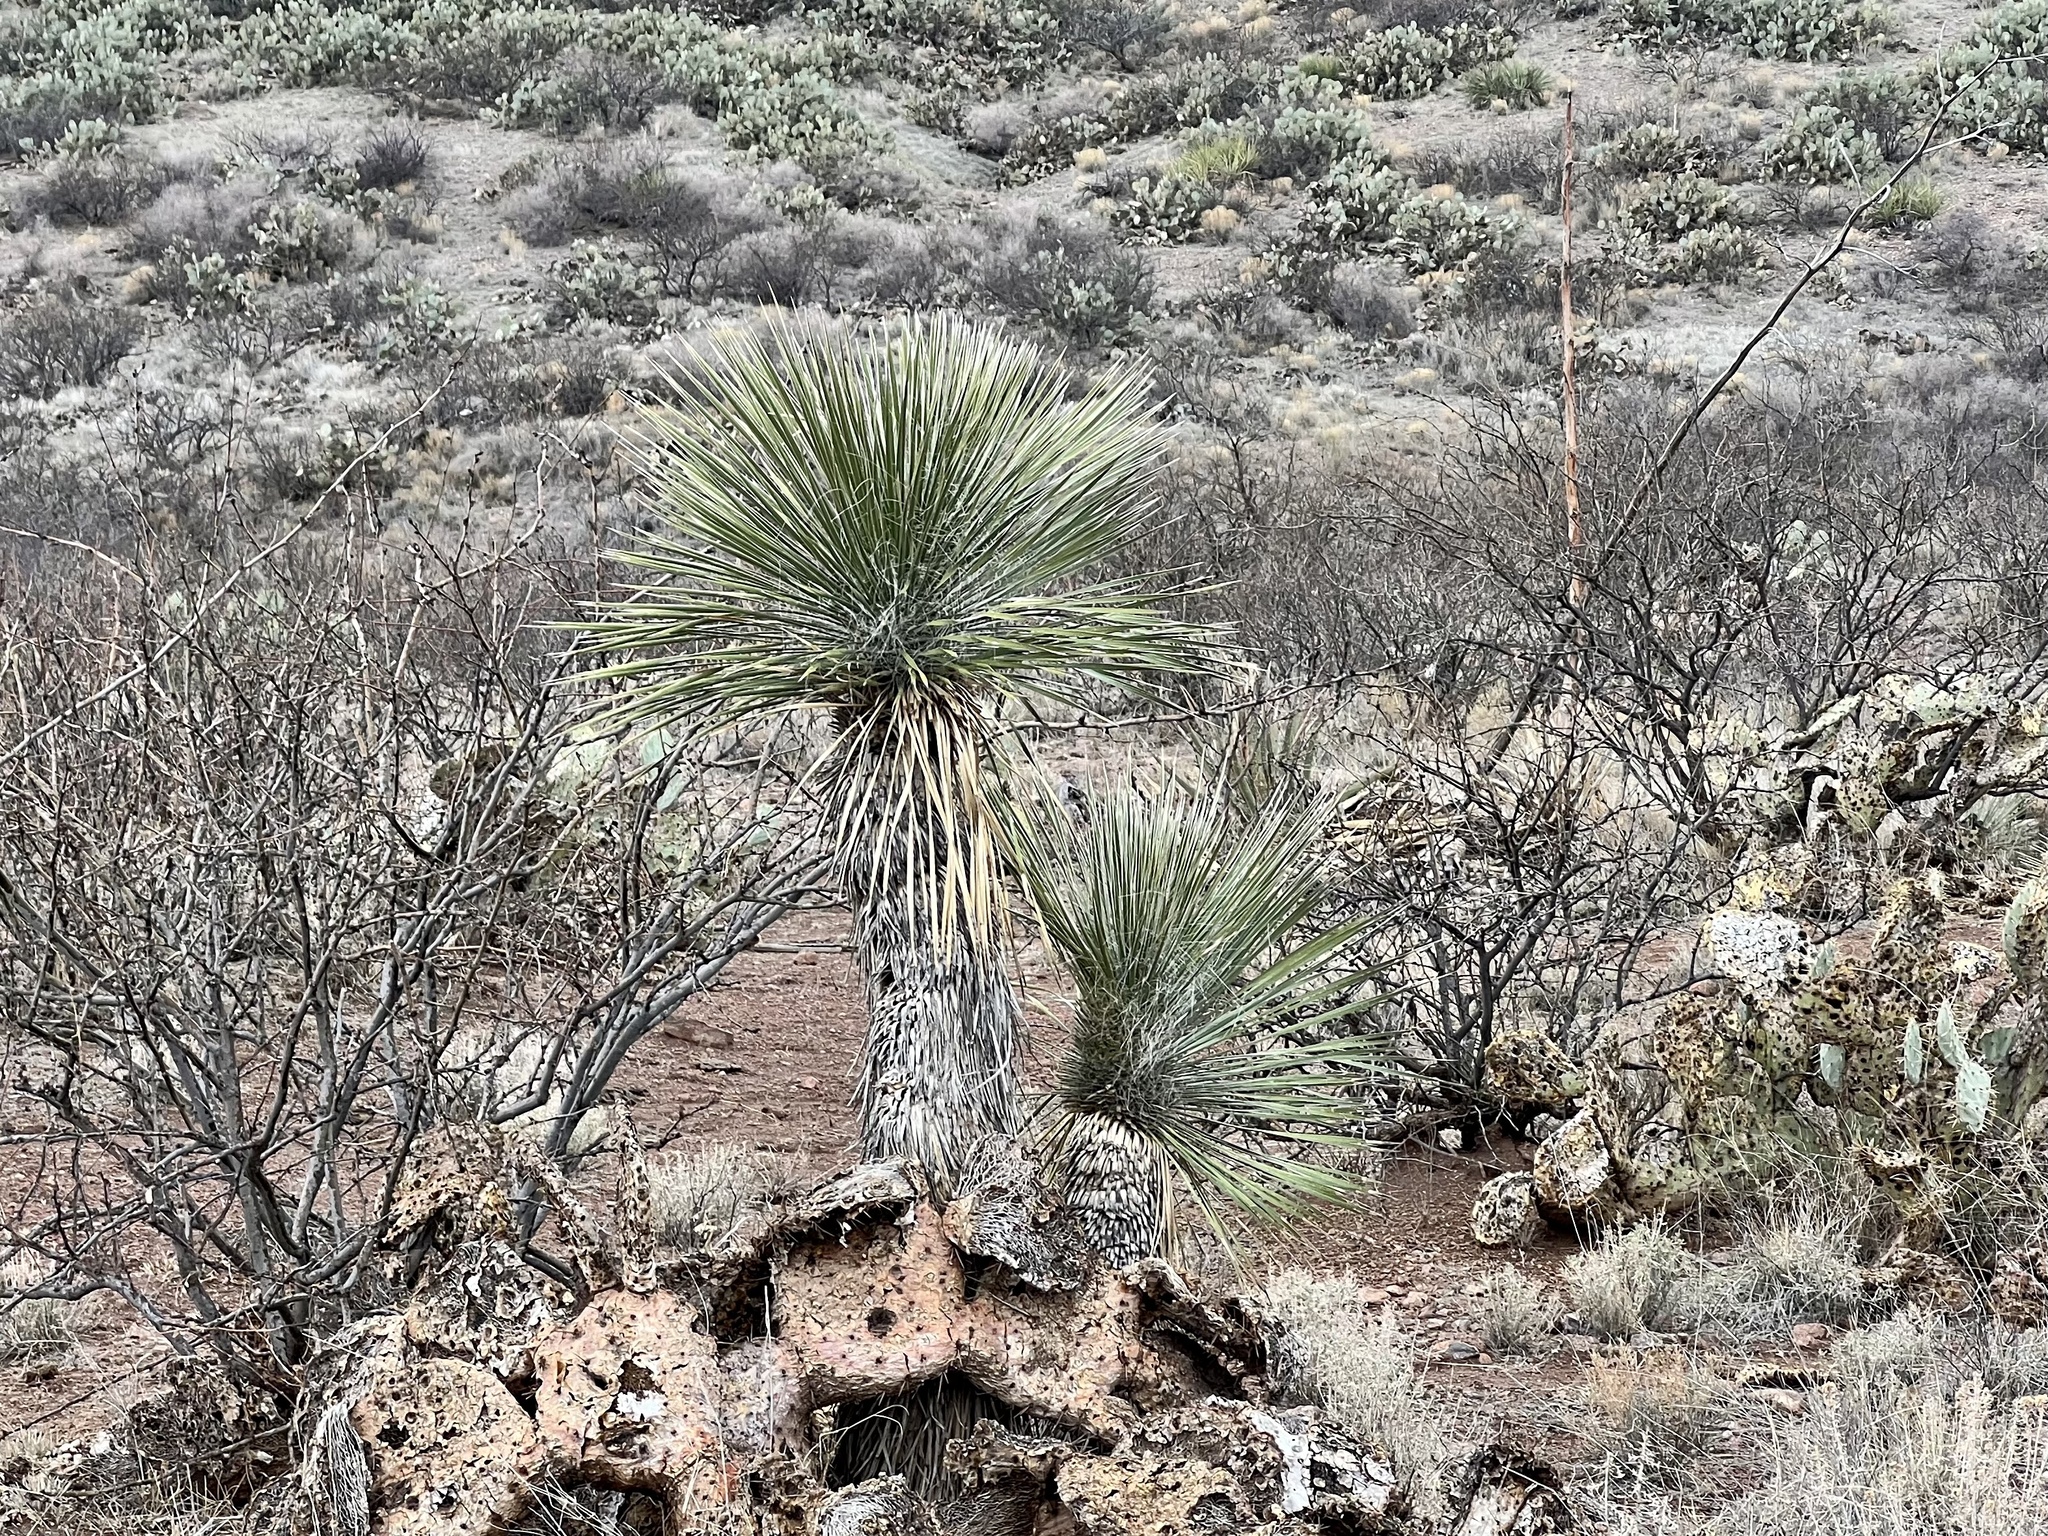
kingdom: Plantae
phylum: Tracheophyta
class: Liliopsida
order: Asparagales
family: Asparagaceae
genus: Yucca
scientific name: Yucca elata
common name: Palmella
